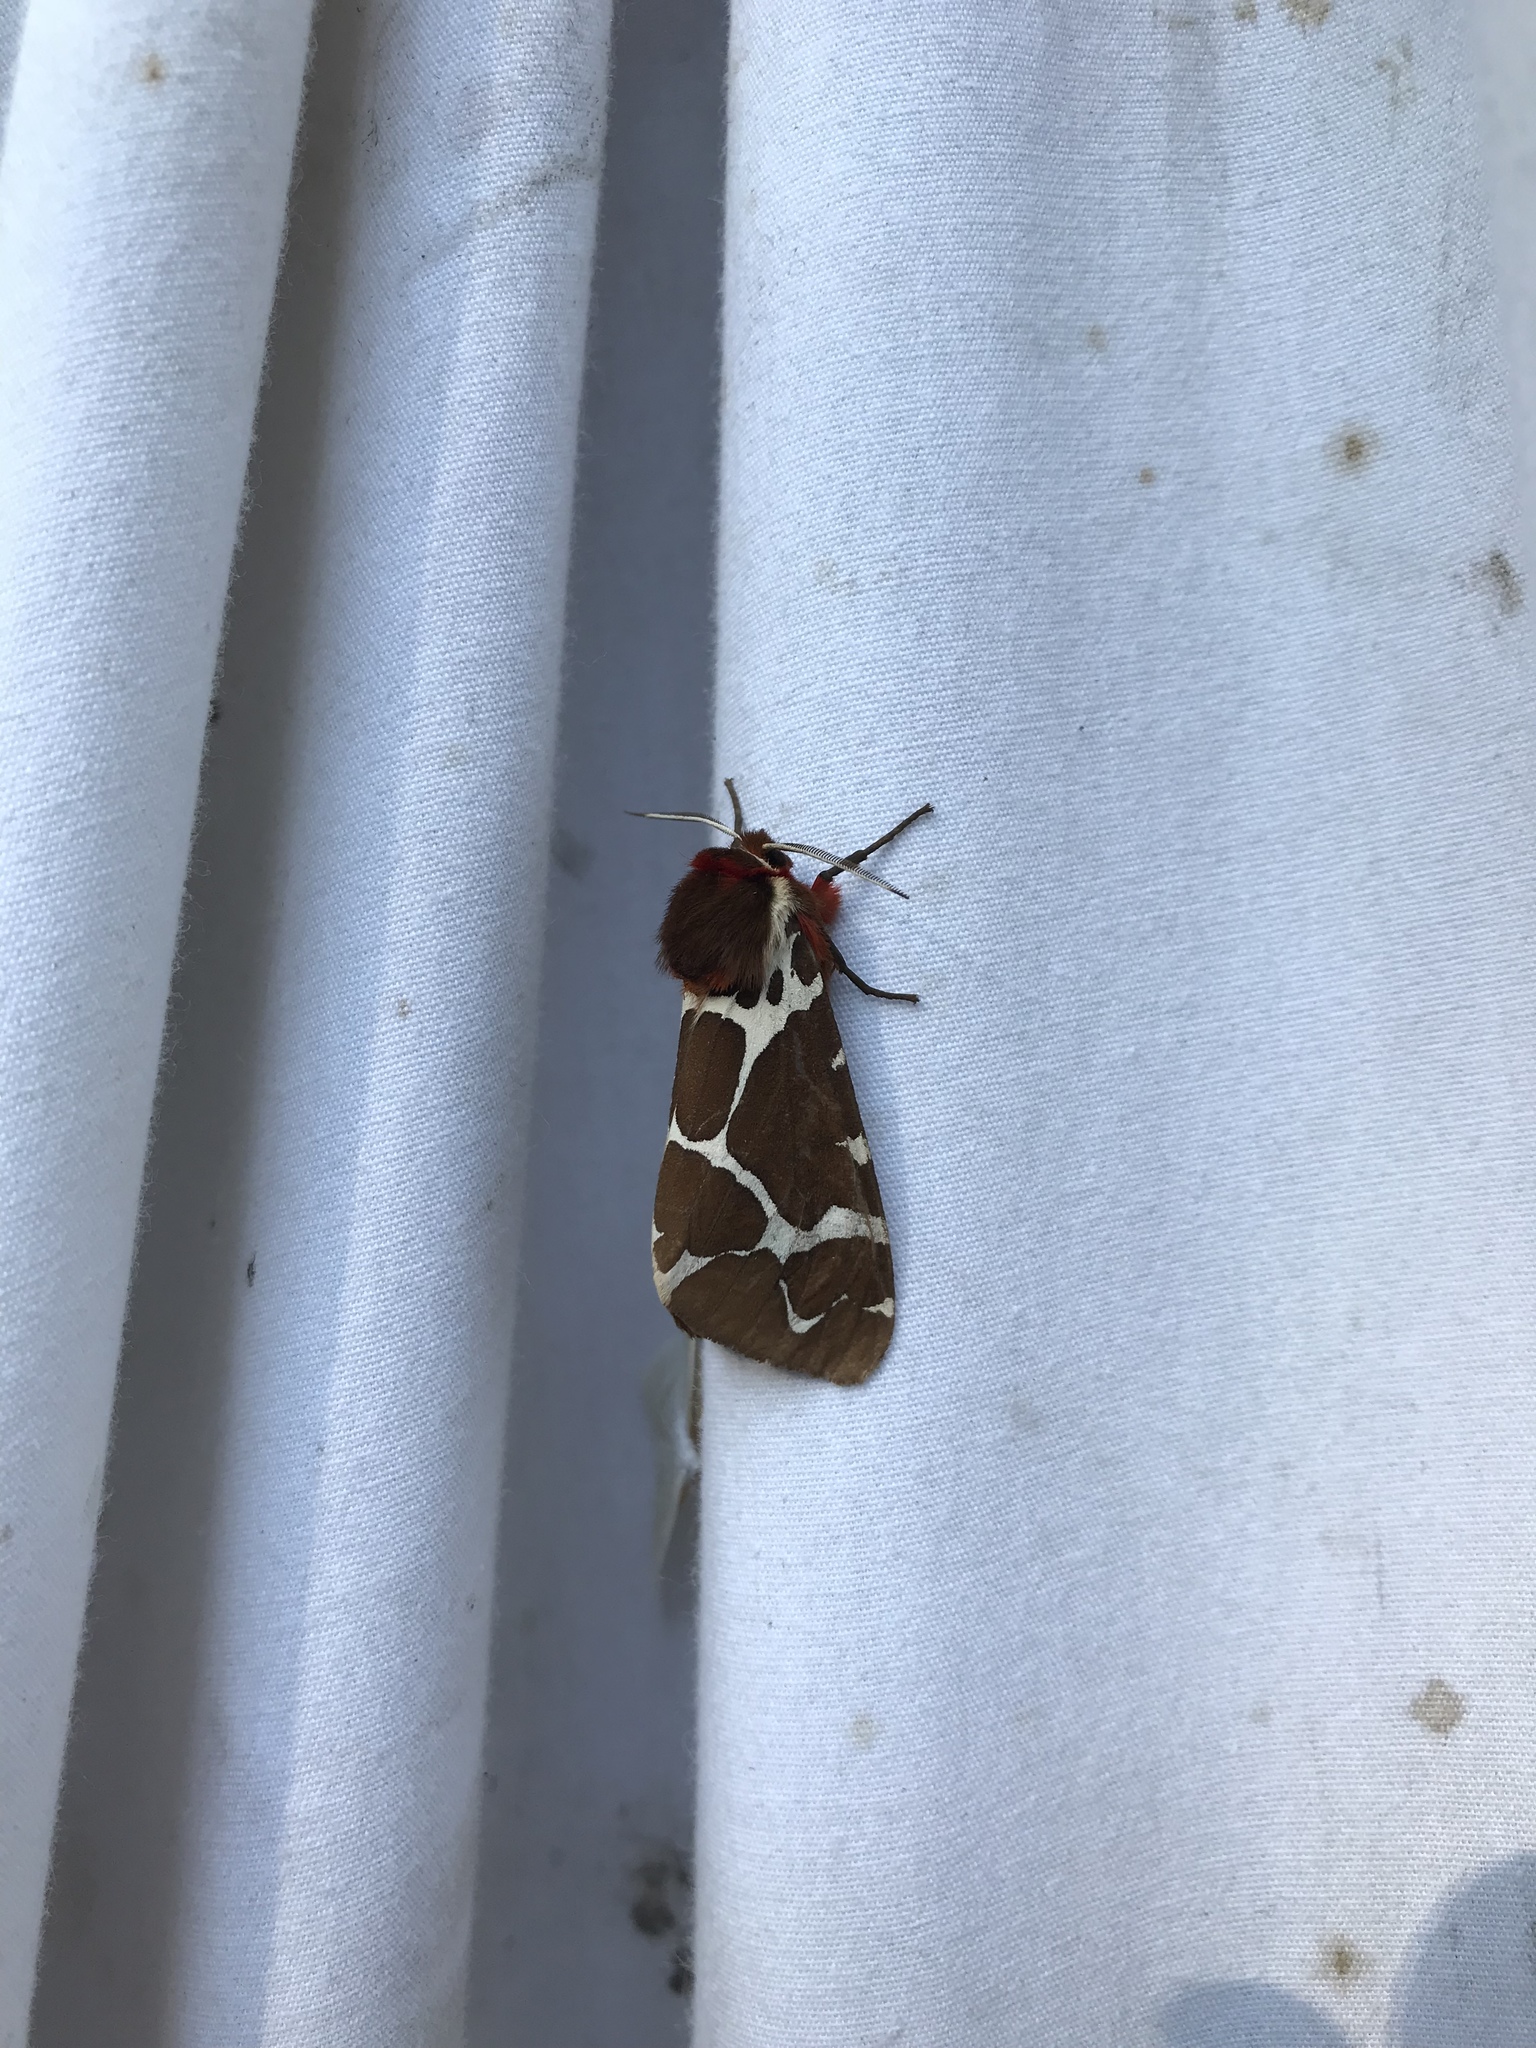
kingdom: Animalia
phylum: Arthropoda
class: Insecta
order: Lepidoptera
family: Erebidae
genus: Arctia
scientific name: Arctia caja
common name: Garden tiger
